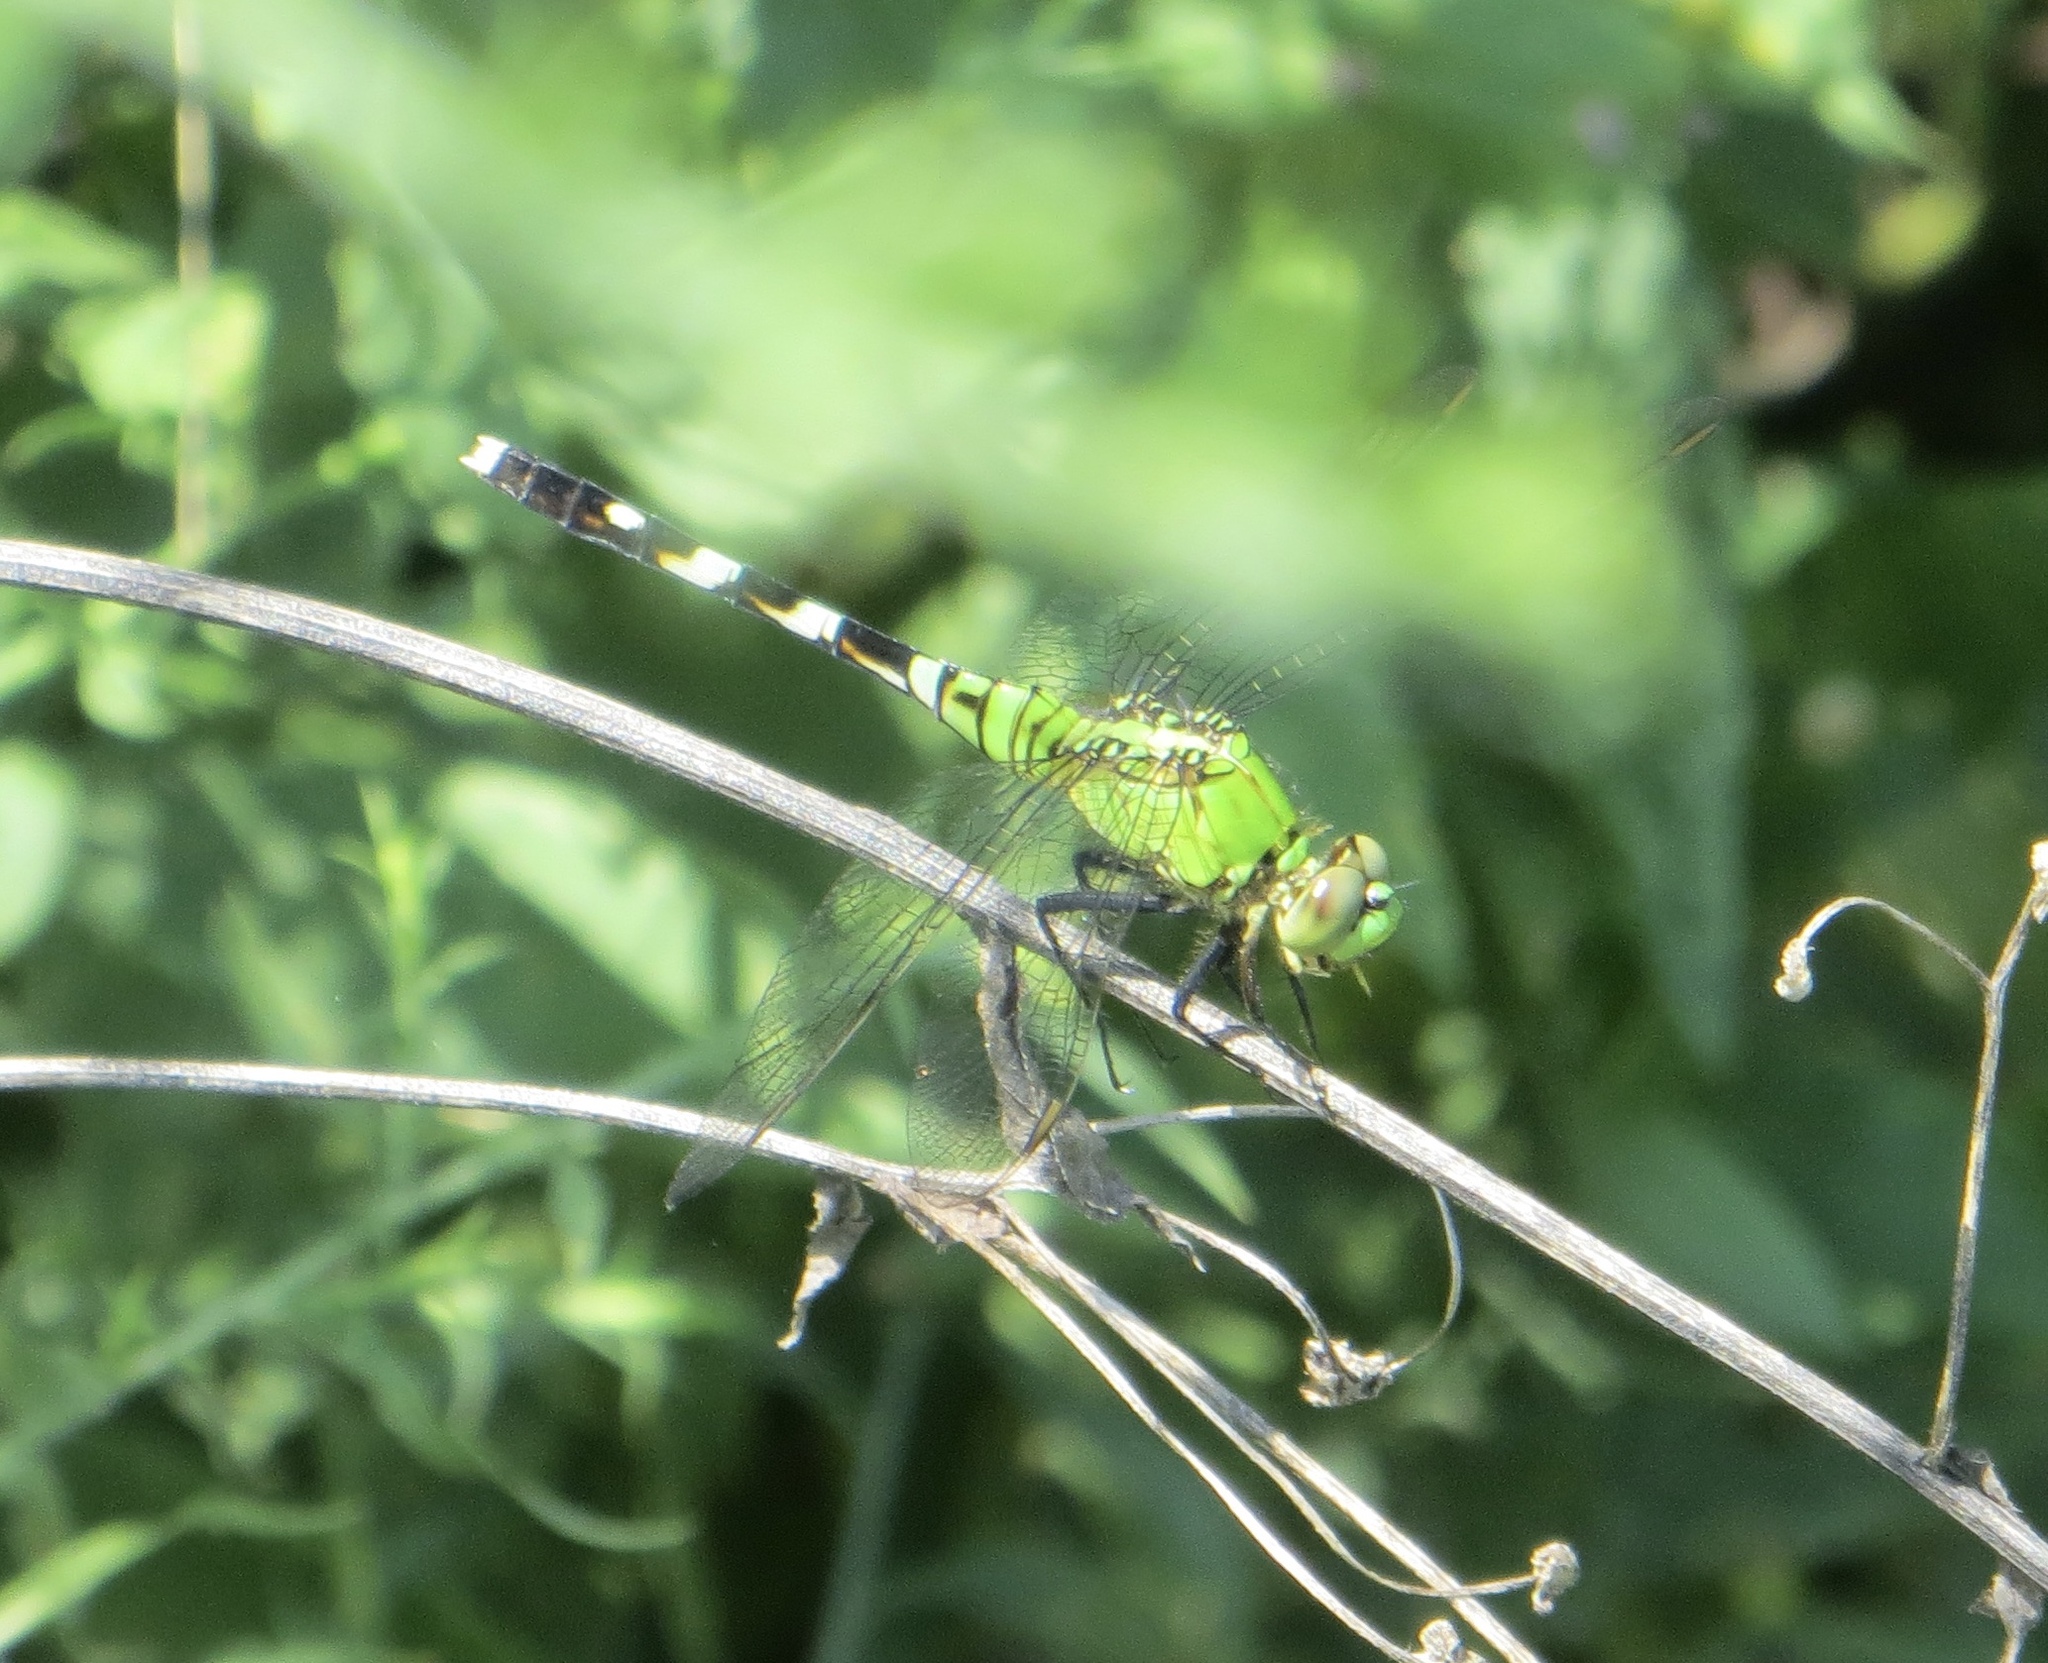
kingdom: Animalia
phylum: Arthropoda
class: Insecta
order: Odonata
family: Libellulidae
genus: Erythemis
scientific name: Erythemis simplicicollis
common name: Eastern pondhawk
